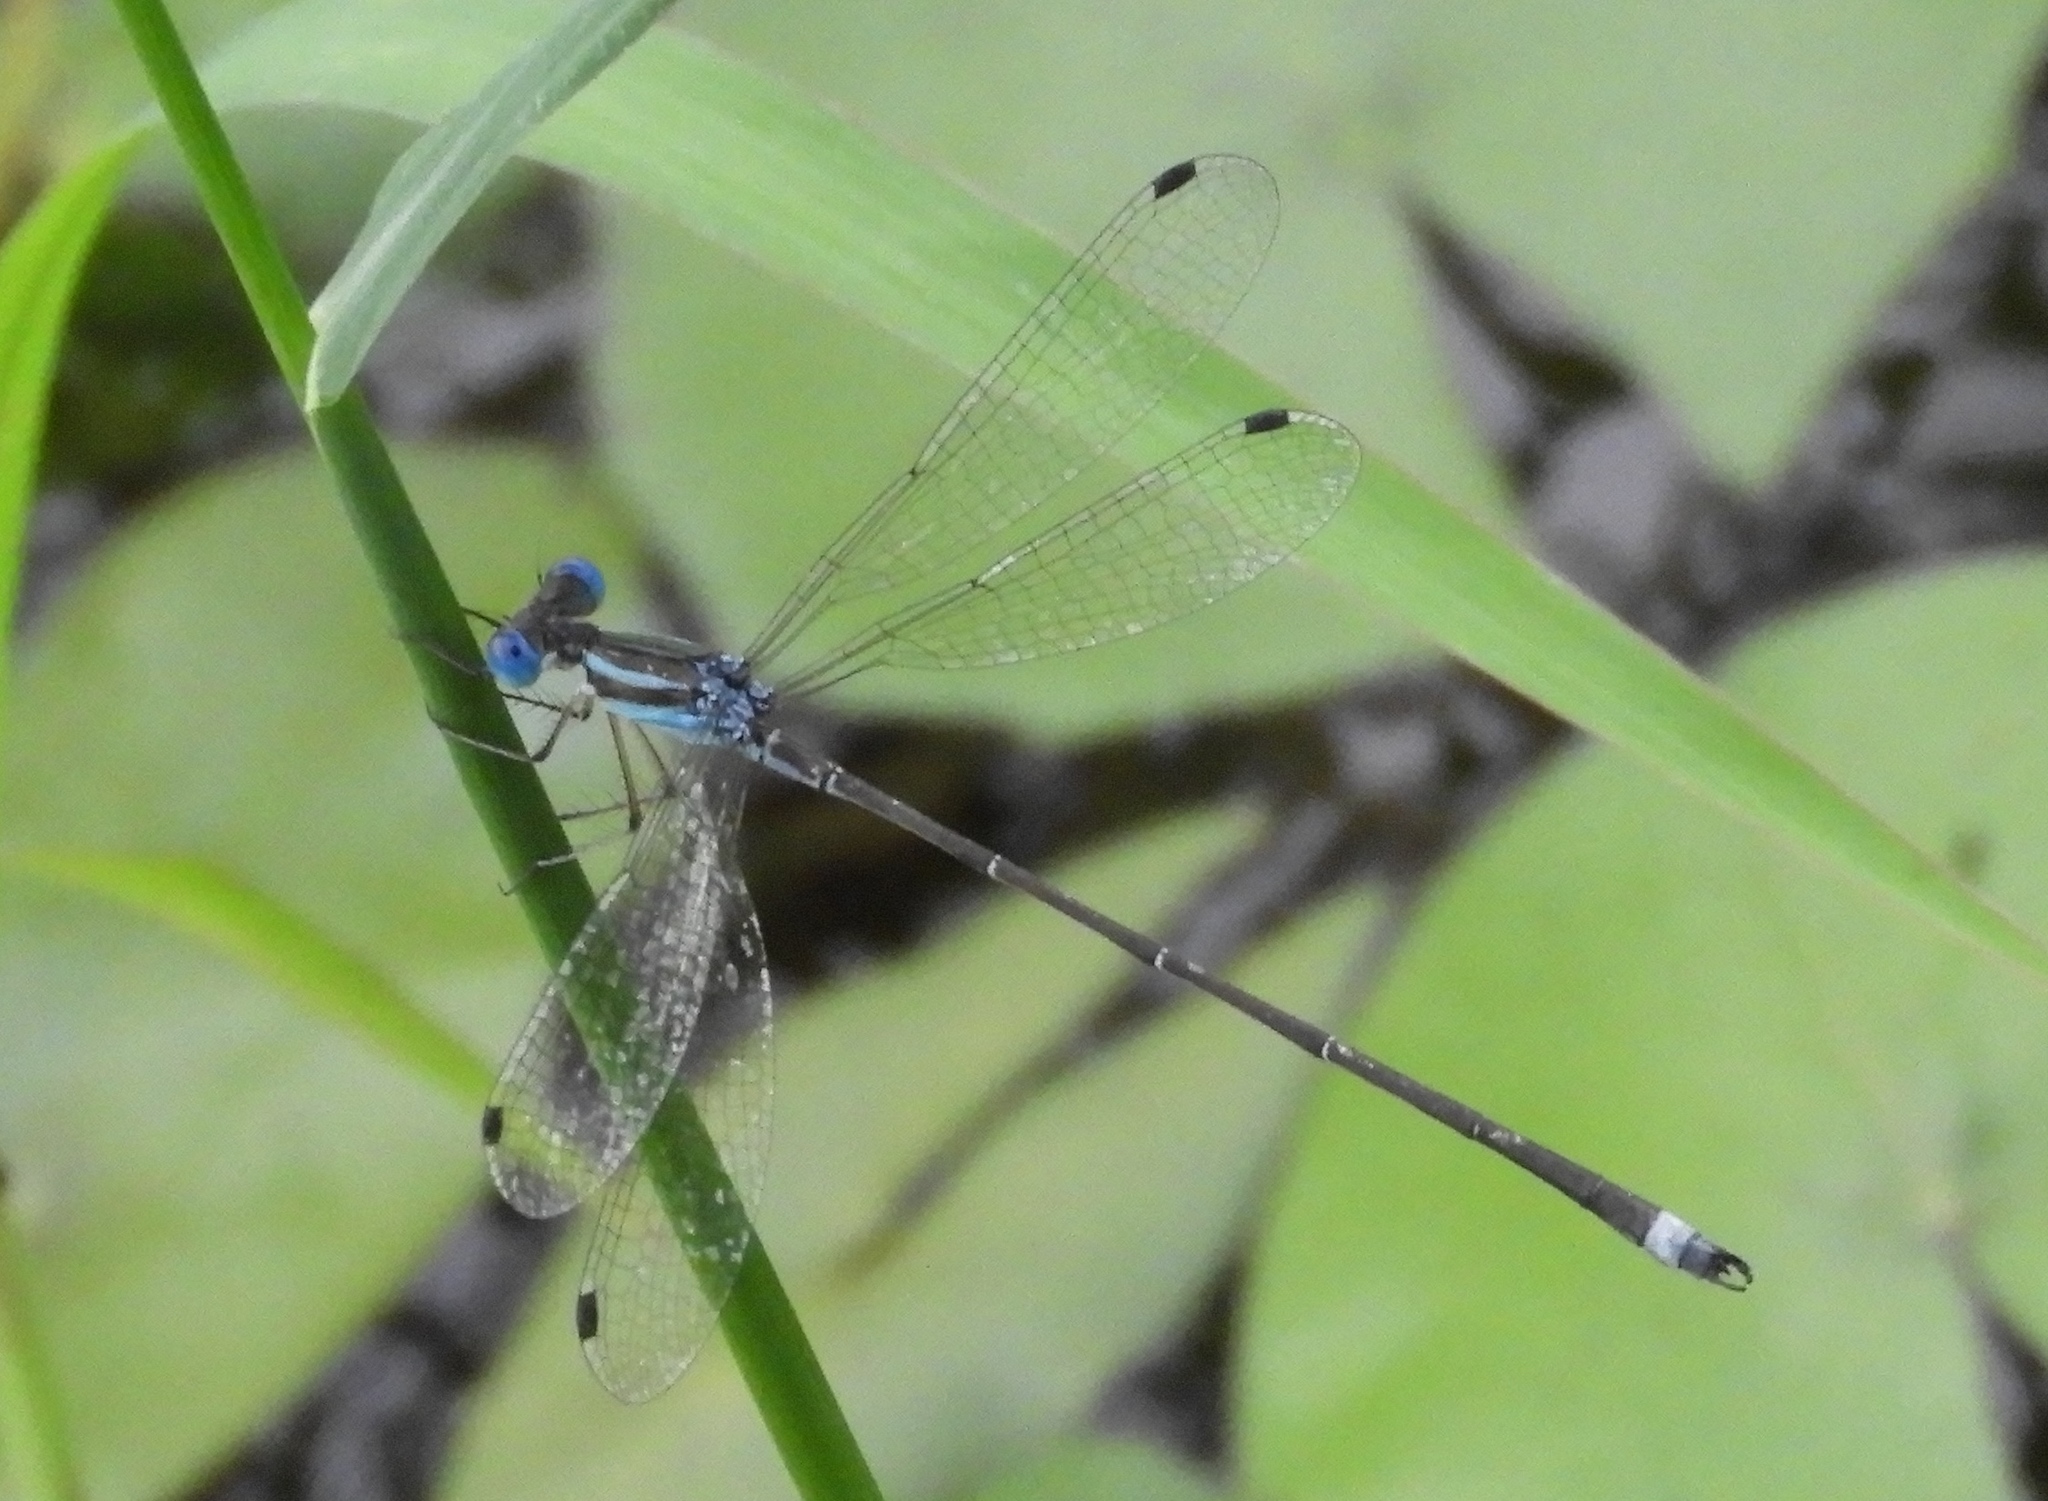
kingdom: Animalia
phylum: Arthropoda
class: Insecta
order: Odonata
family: Lestidae
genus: Lestes
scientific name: Lestes tenuatus
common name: Blue-striped spreadwing
